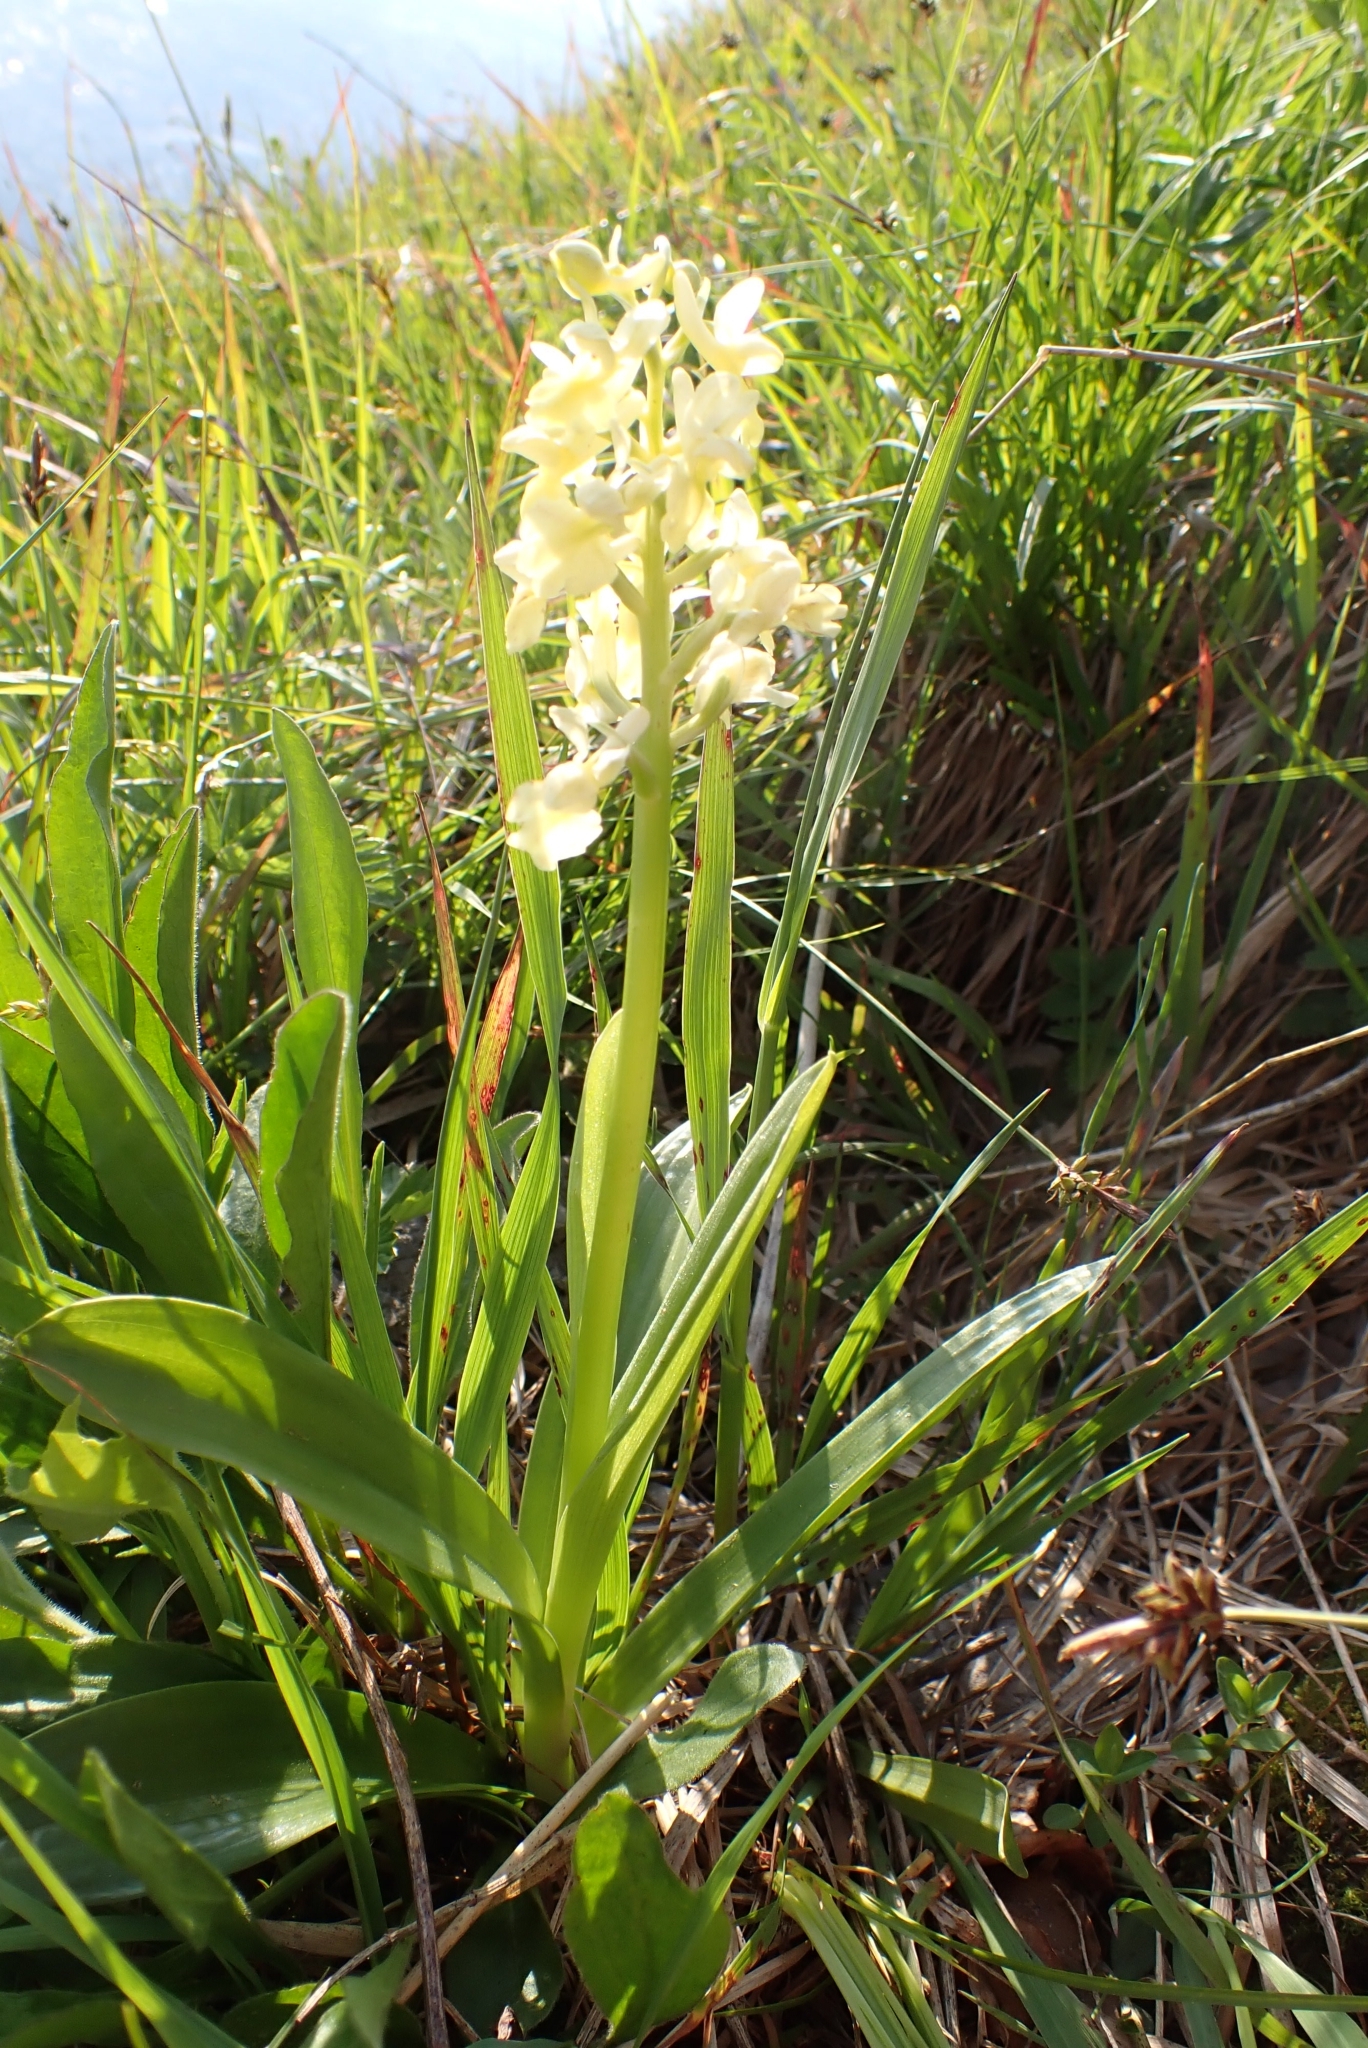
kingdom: Plantae
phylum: Tracheophyta
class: Liliopsida
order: Asparagales
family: Orchidaceae
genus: Orchis
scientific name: Orchis pallens
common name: Pale-flowered orchid
